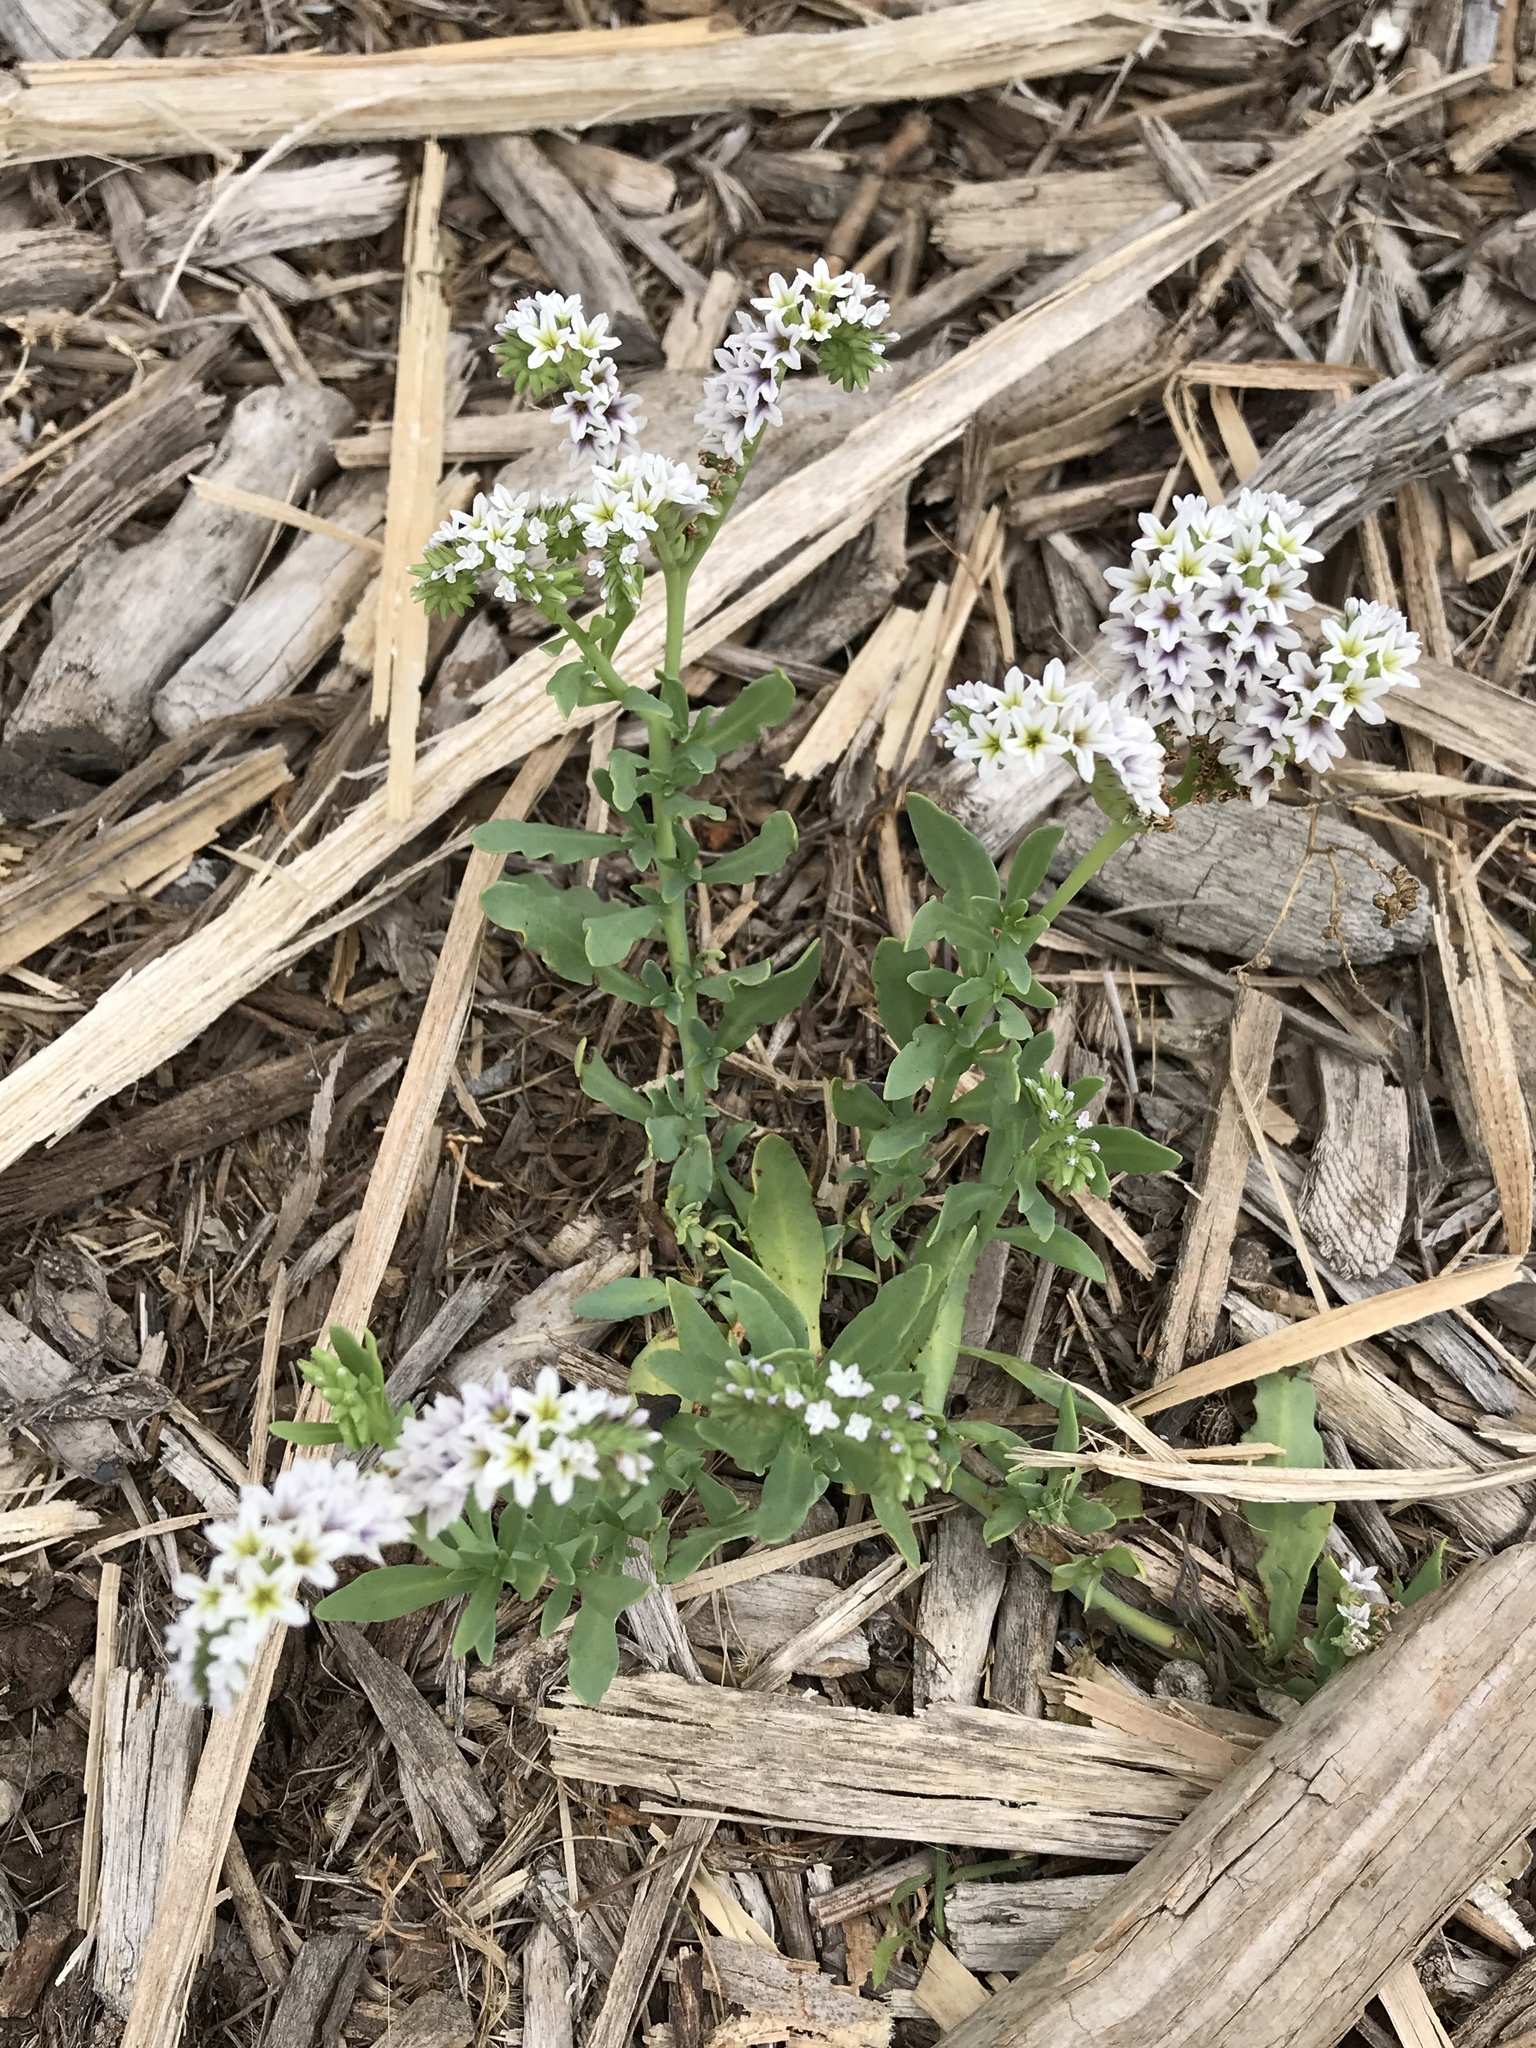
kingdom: Plantae
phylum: Tracheophyta
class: Magnoliopsida
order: Boraginales
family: Heliotropiaceae
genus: Heliotropium
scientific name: Heliotropium curassavicum
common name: Seaside heliotrope
